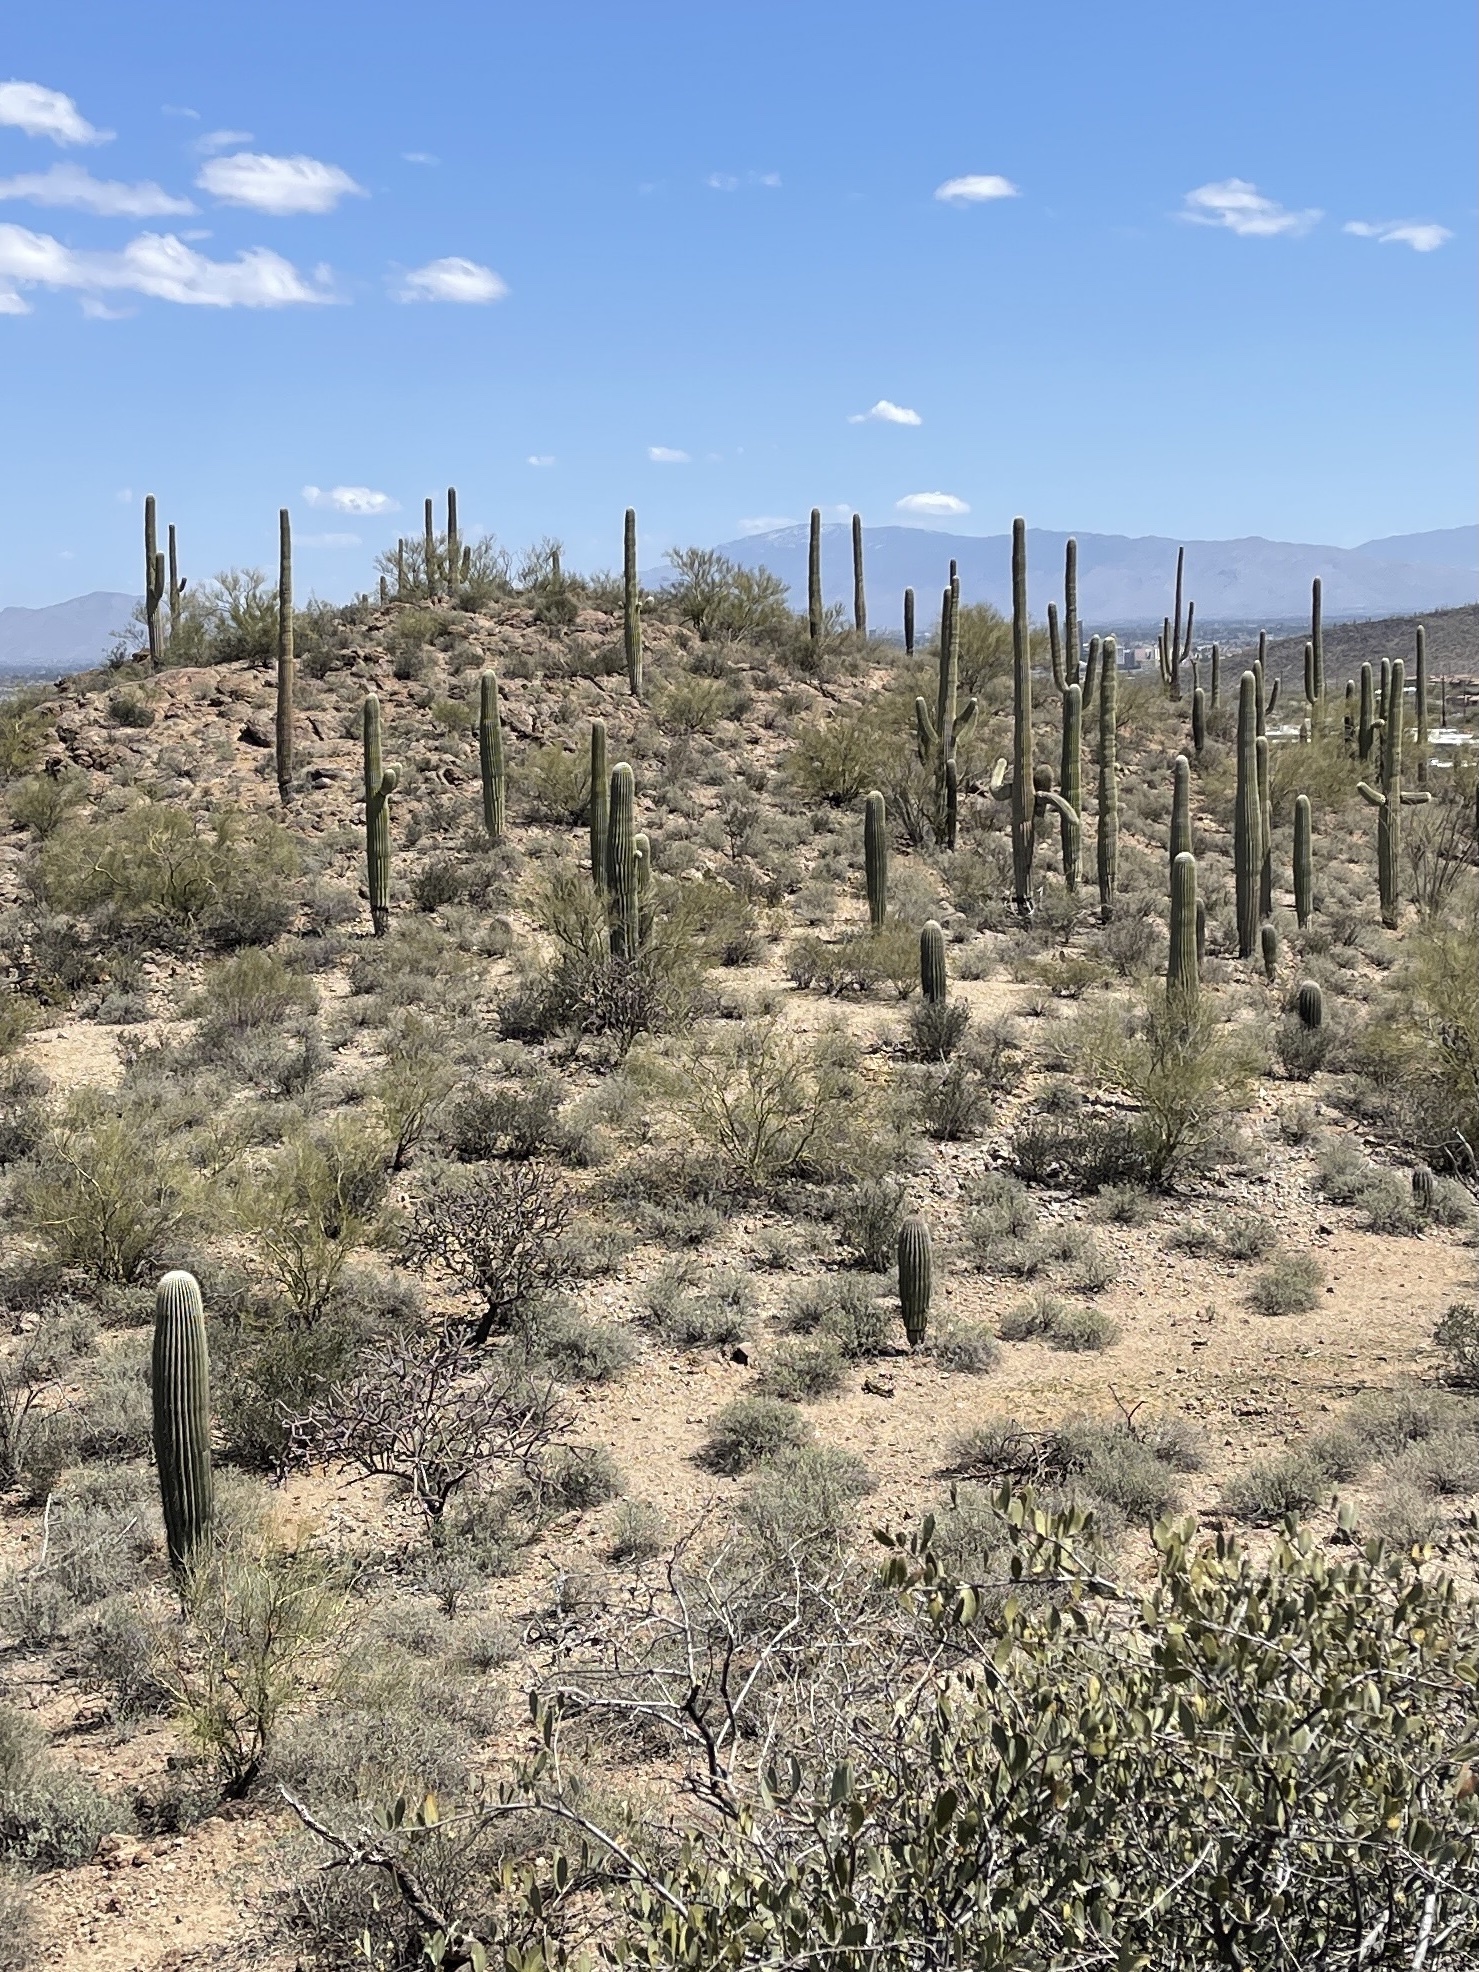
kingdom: Plantae
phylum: Tracheophyta
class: Magnoliopsida
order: Caryophyllales
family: Cactaceae
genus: Carnegiea
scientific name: Carnegiea gigantea
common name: Saguaro
